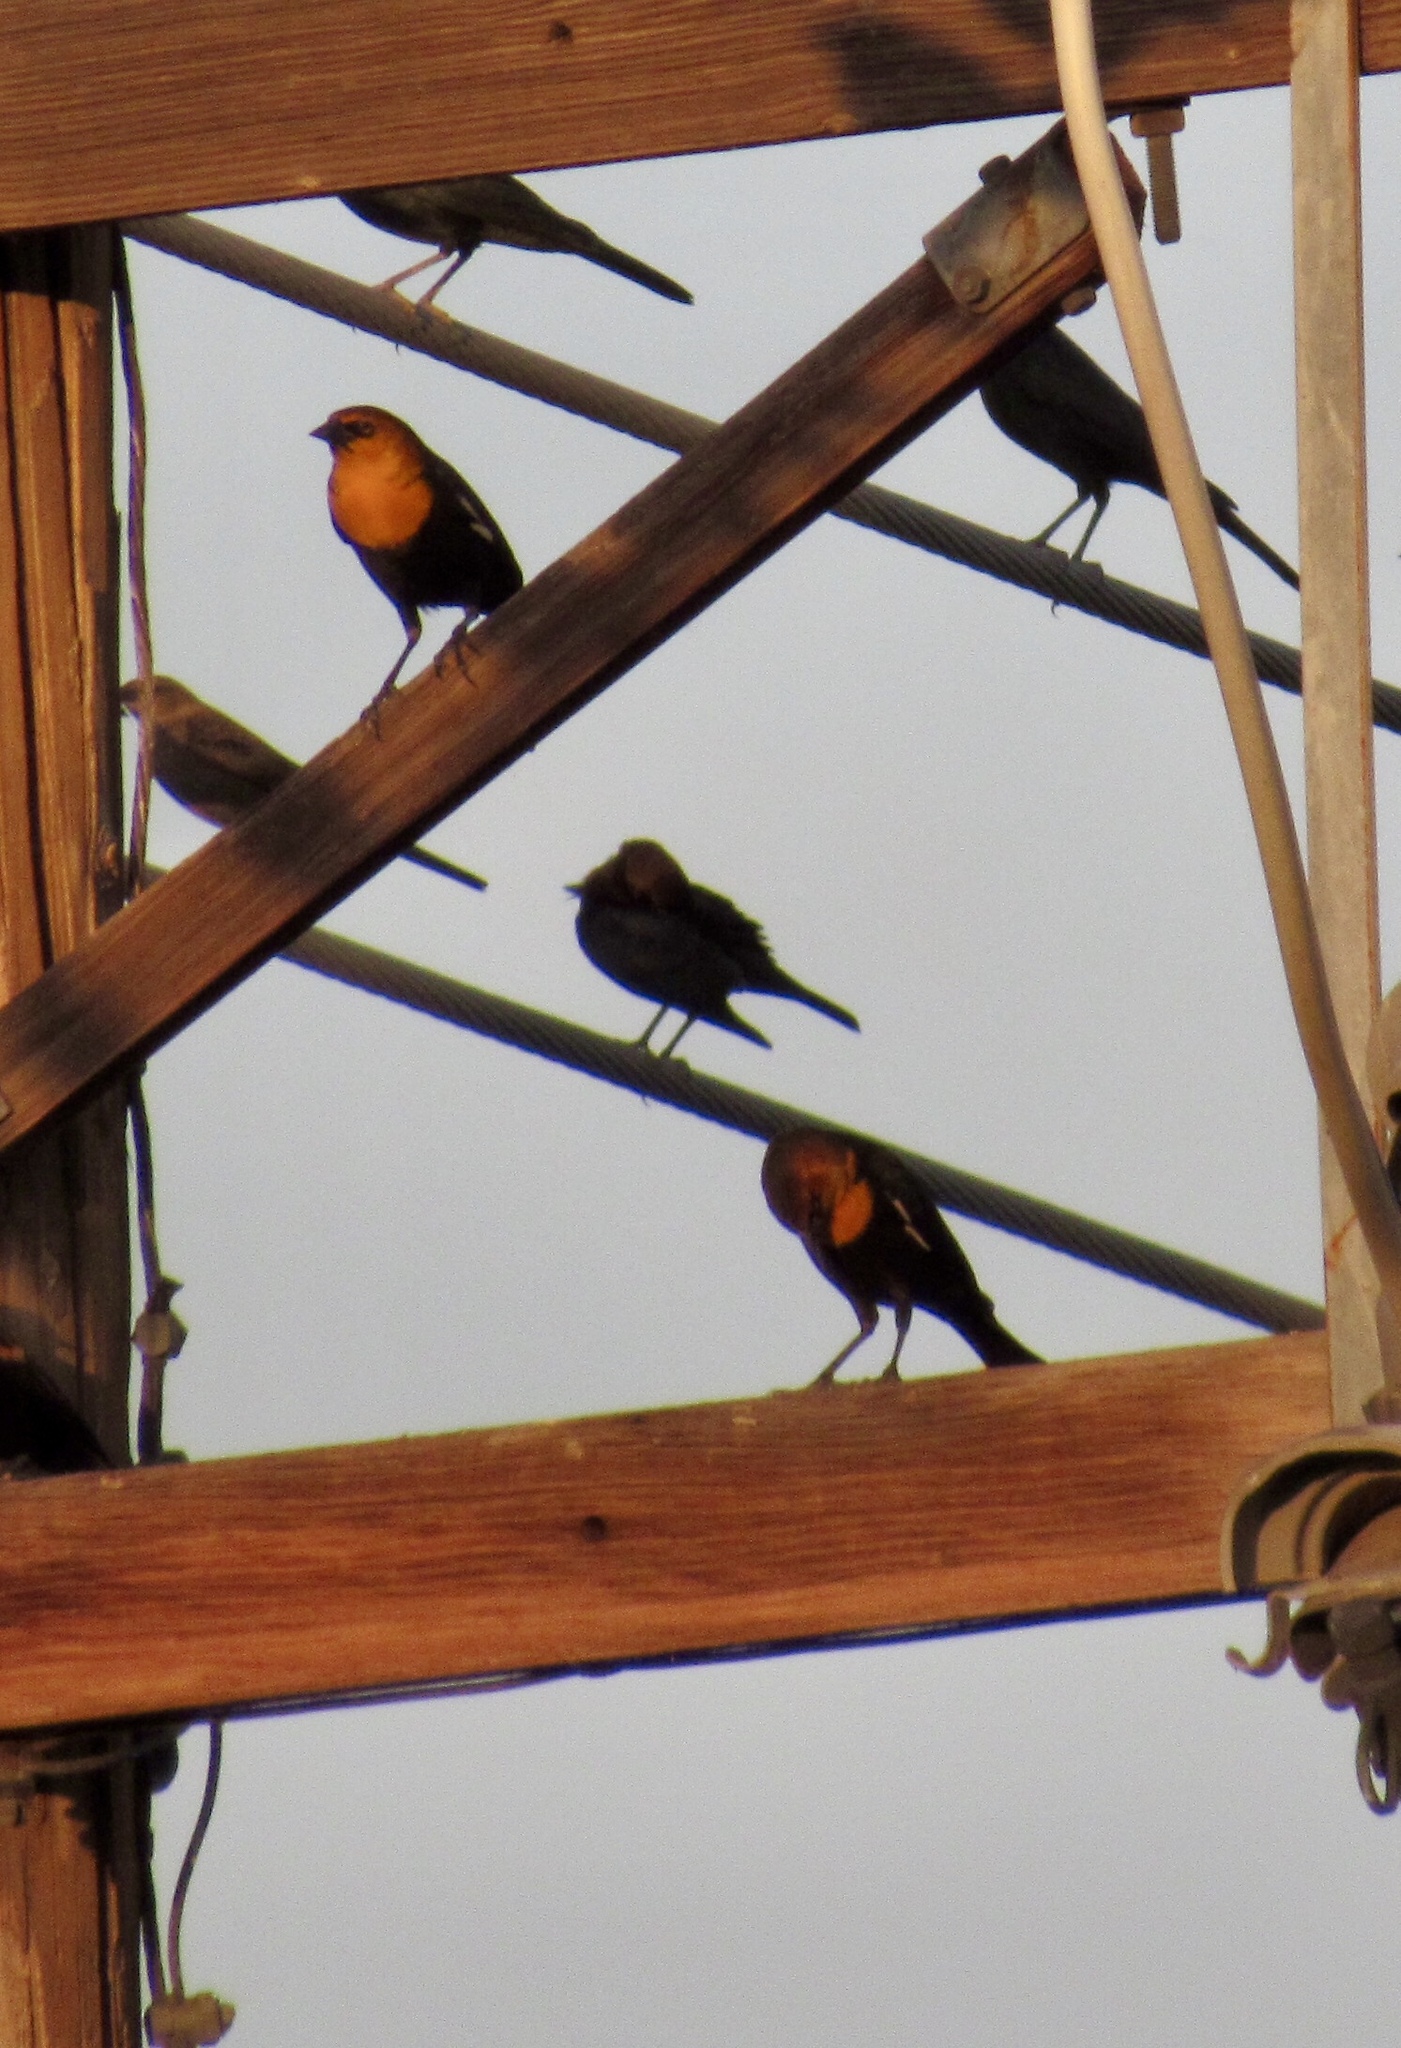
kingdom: Animalia
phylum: Chordata
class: Aves
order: Passeriformes
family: Icteridae
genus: Xanthocephalus
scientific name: Xanthocephalus xanthocephalus
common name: Yellow-headed blackbird
